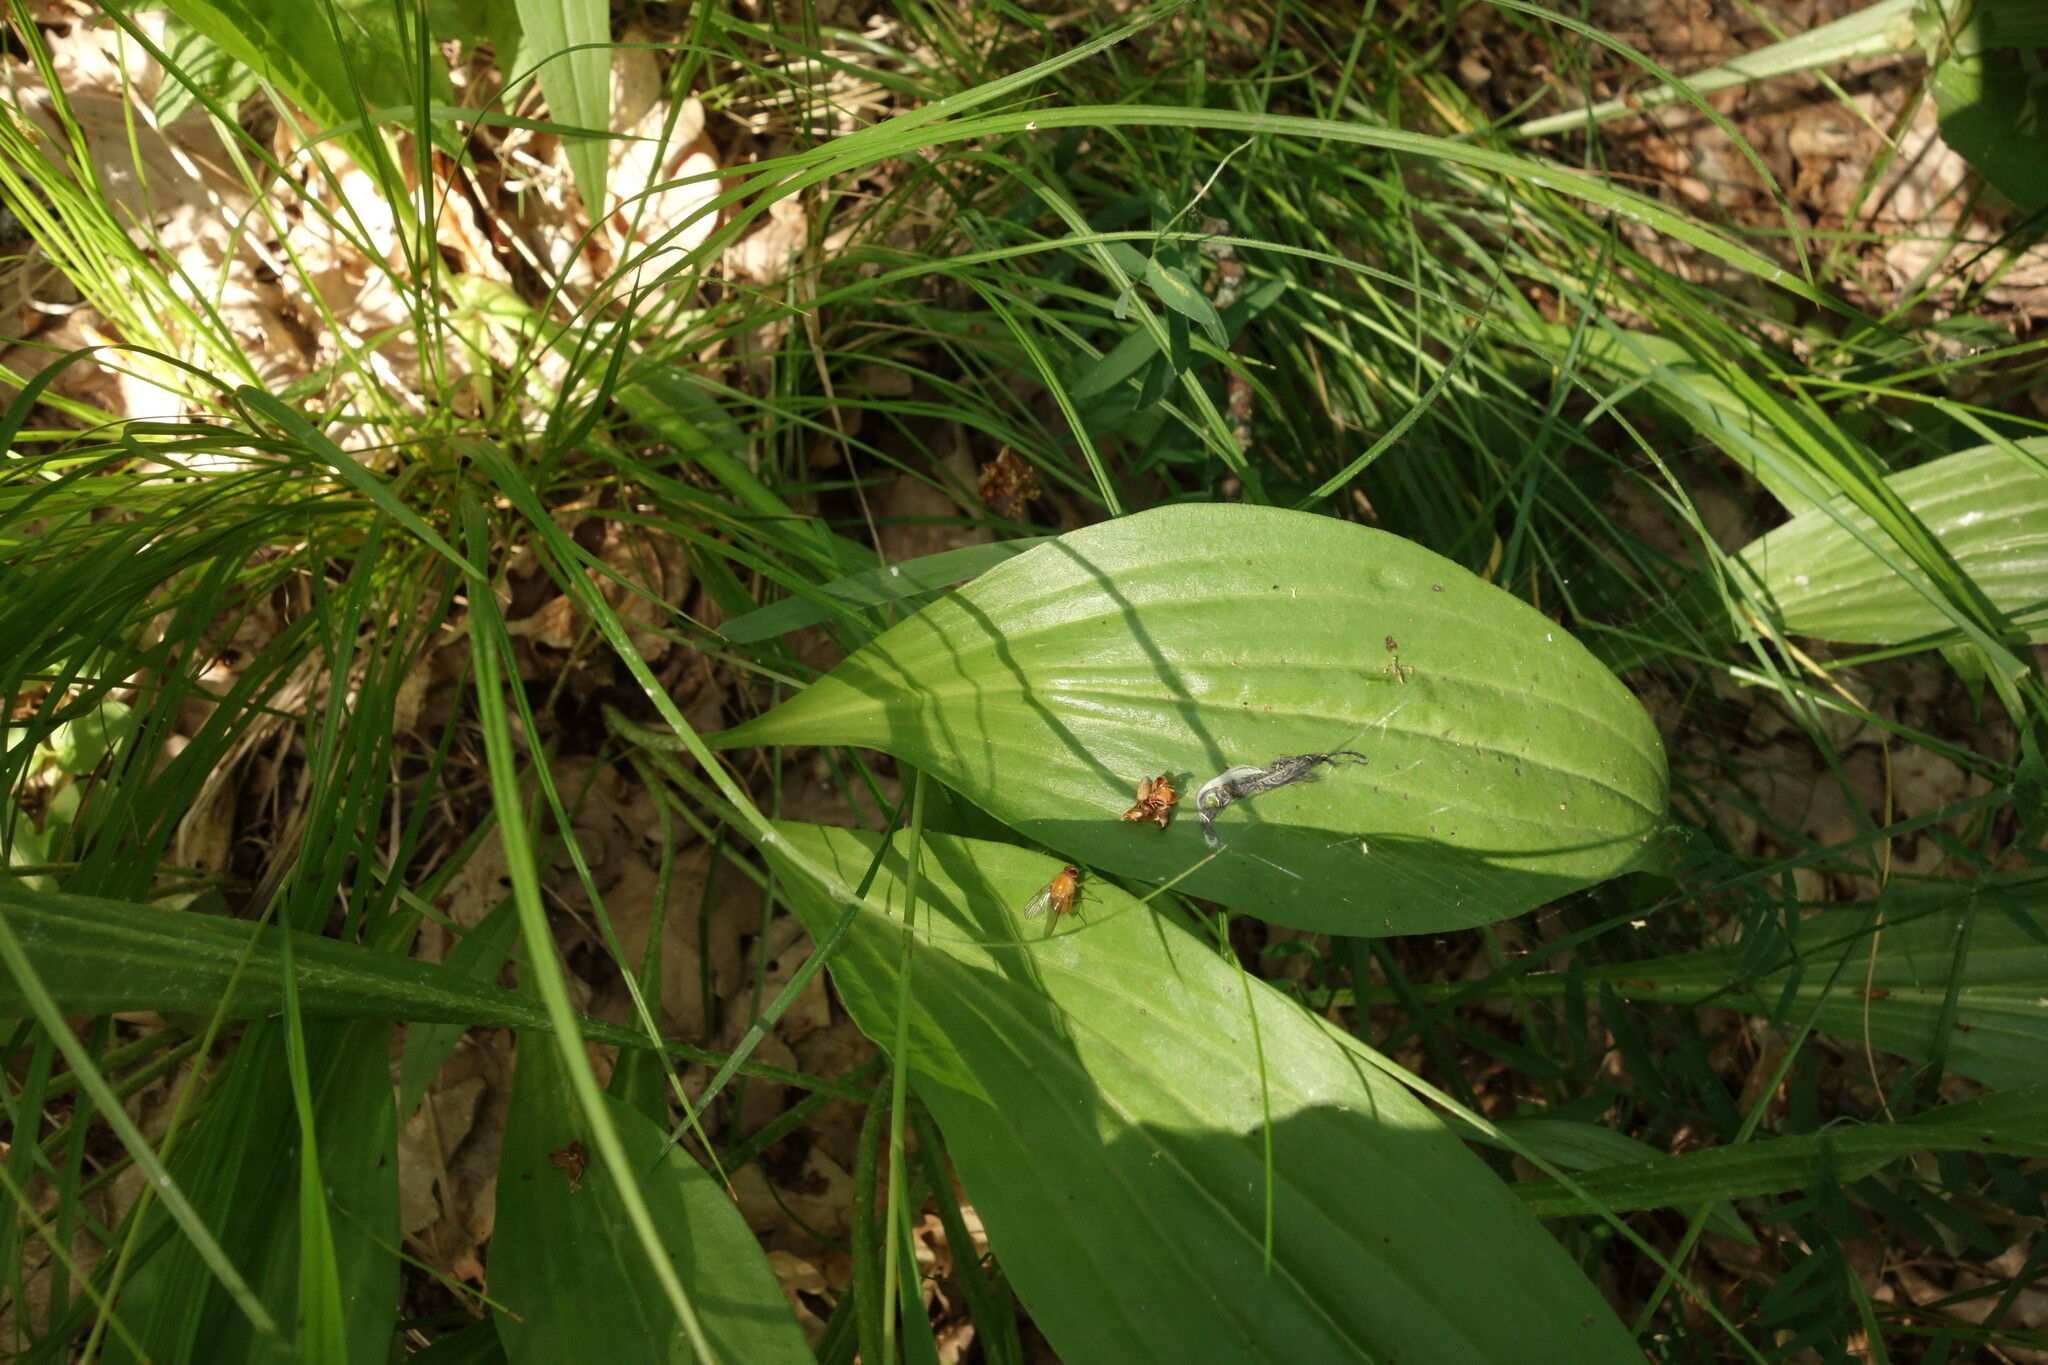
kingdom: Plantae
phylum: Tracheophyta
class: Magnoliopsida
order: Asterales
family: Asteraceae
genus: Scorzonera
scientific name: Scorzonera humilis
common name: Viper's-grass
